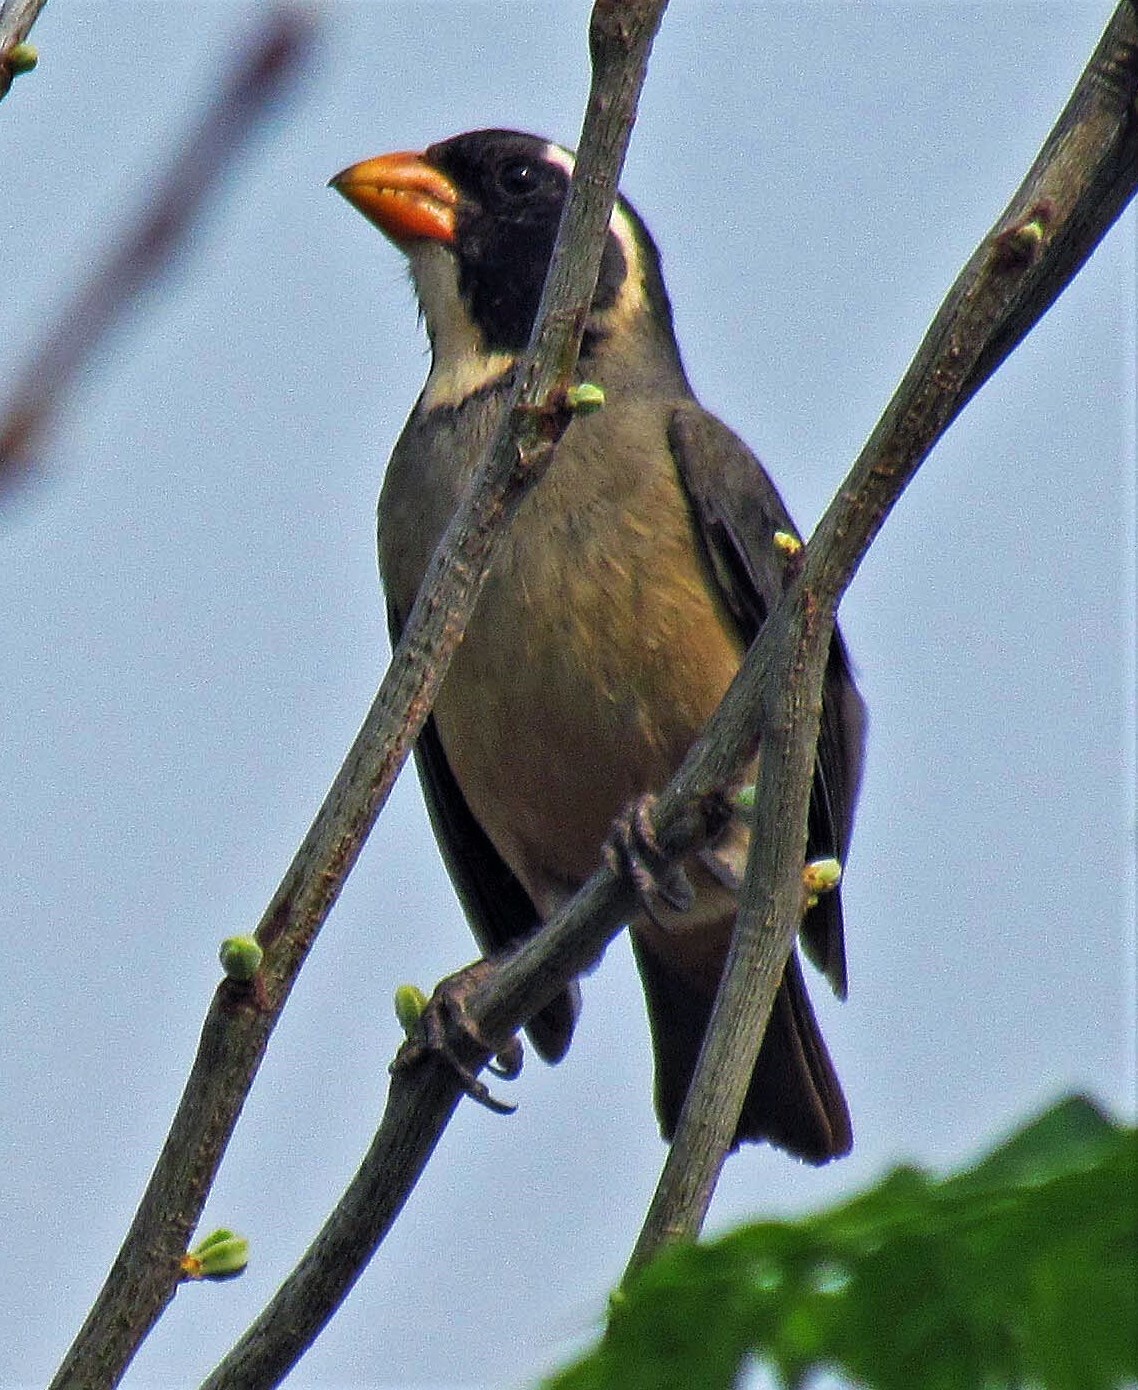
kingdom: Animalia
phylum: Chordata
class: Aves
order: Passeriformes
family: Thraupidae
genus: Saltator
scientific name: Saltator aurantiirostris
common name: Golden-billed saltator
